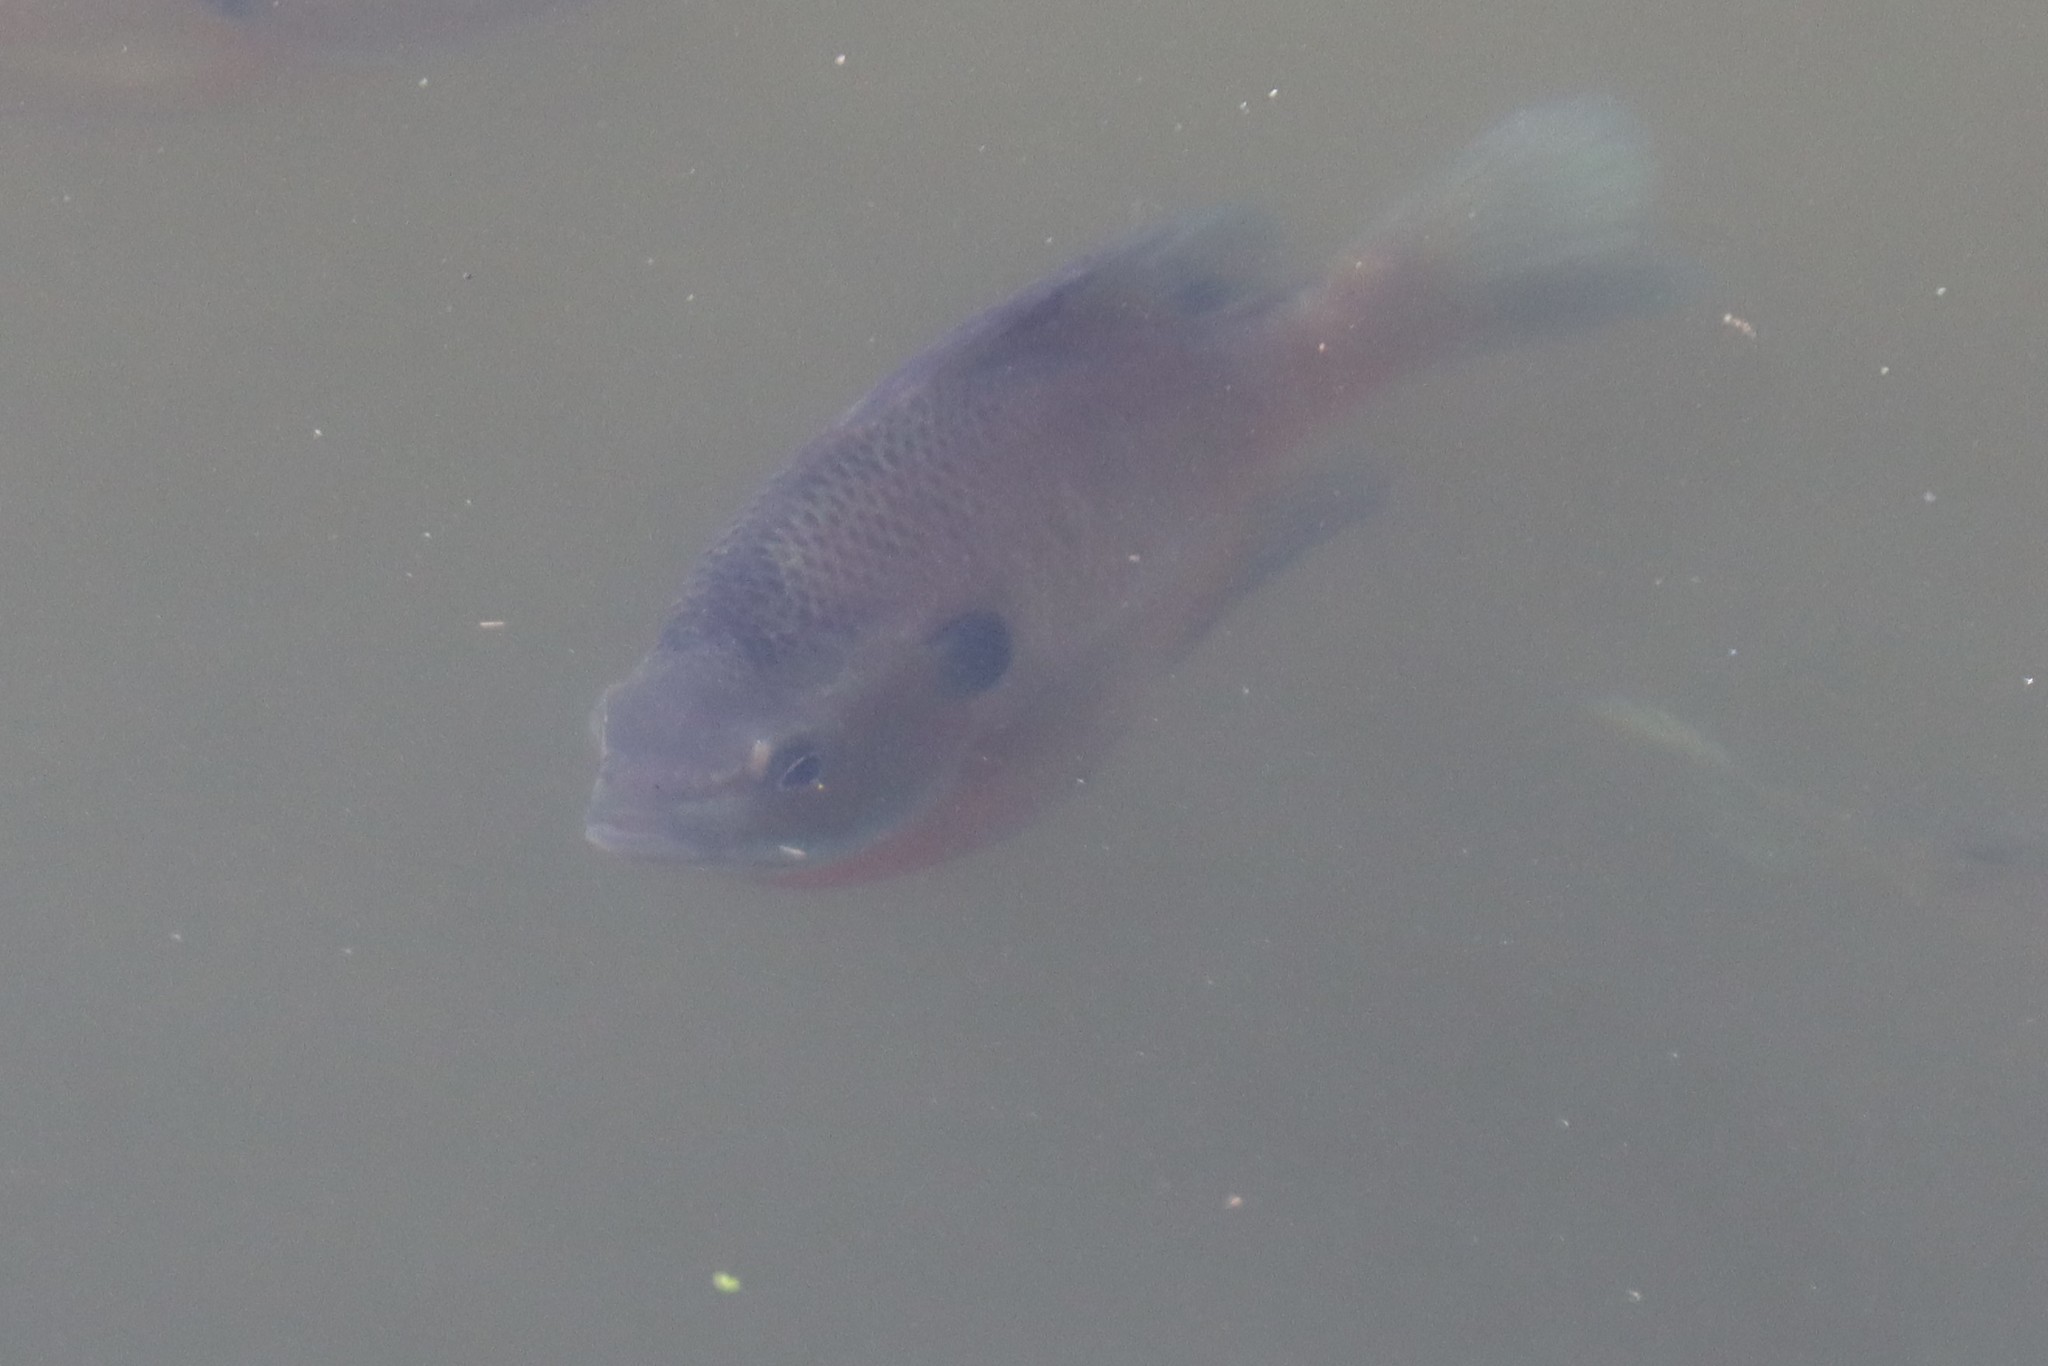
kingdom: Animalia
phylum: Chordata
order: Perciformes
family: Centrarchidae
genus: Lepomis
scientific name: Lepomis macrochirus
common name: Bluegill
